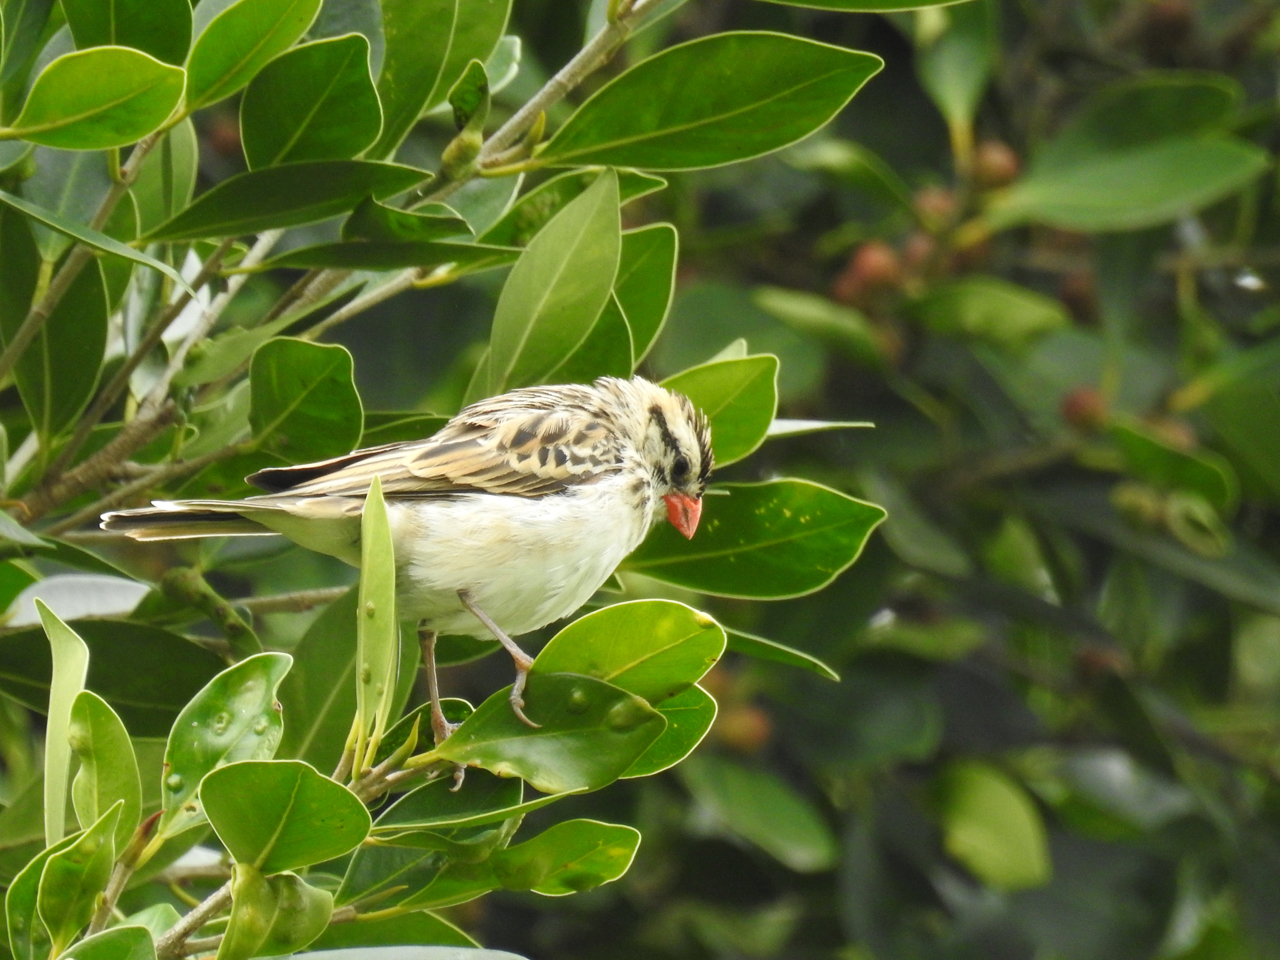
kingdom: Animalia
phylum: Chordata
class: Aves
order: Passeriformes
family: Viduidae
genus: Vidua
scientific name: Vidua macroura
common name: Pin-tailed whydah
